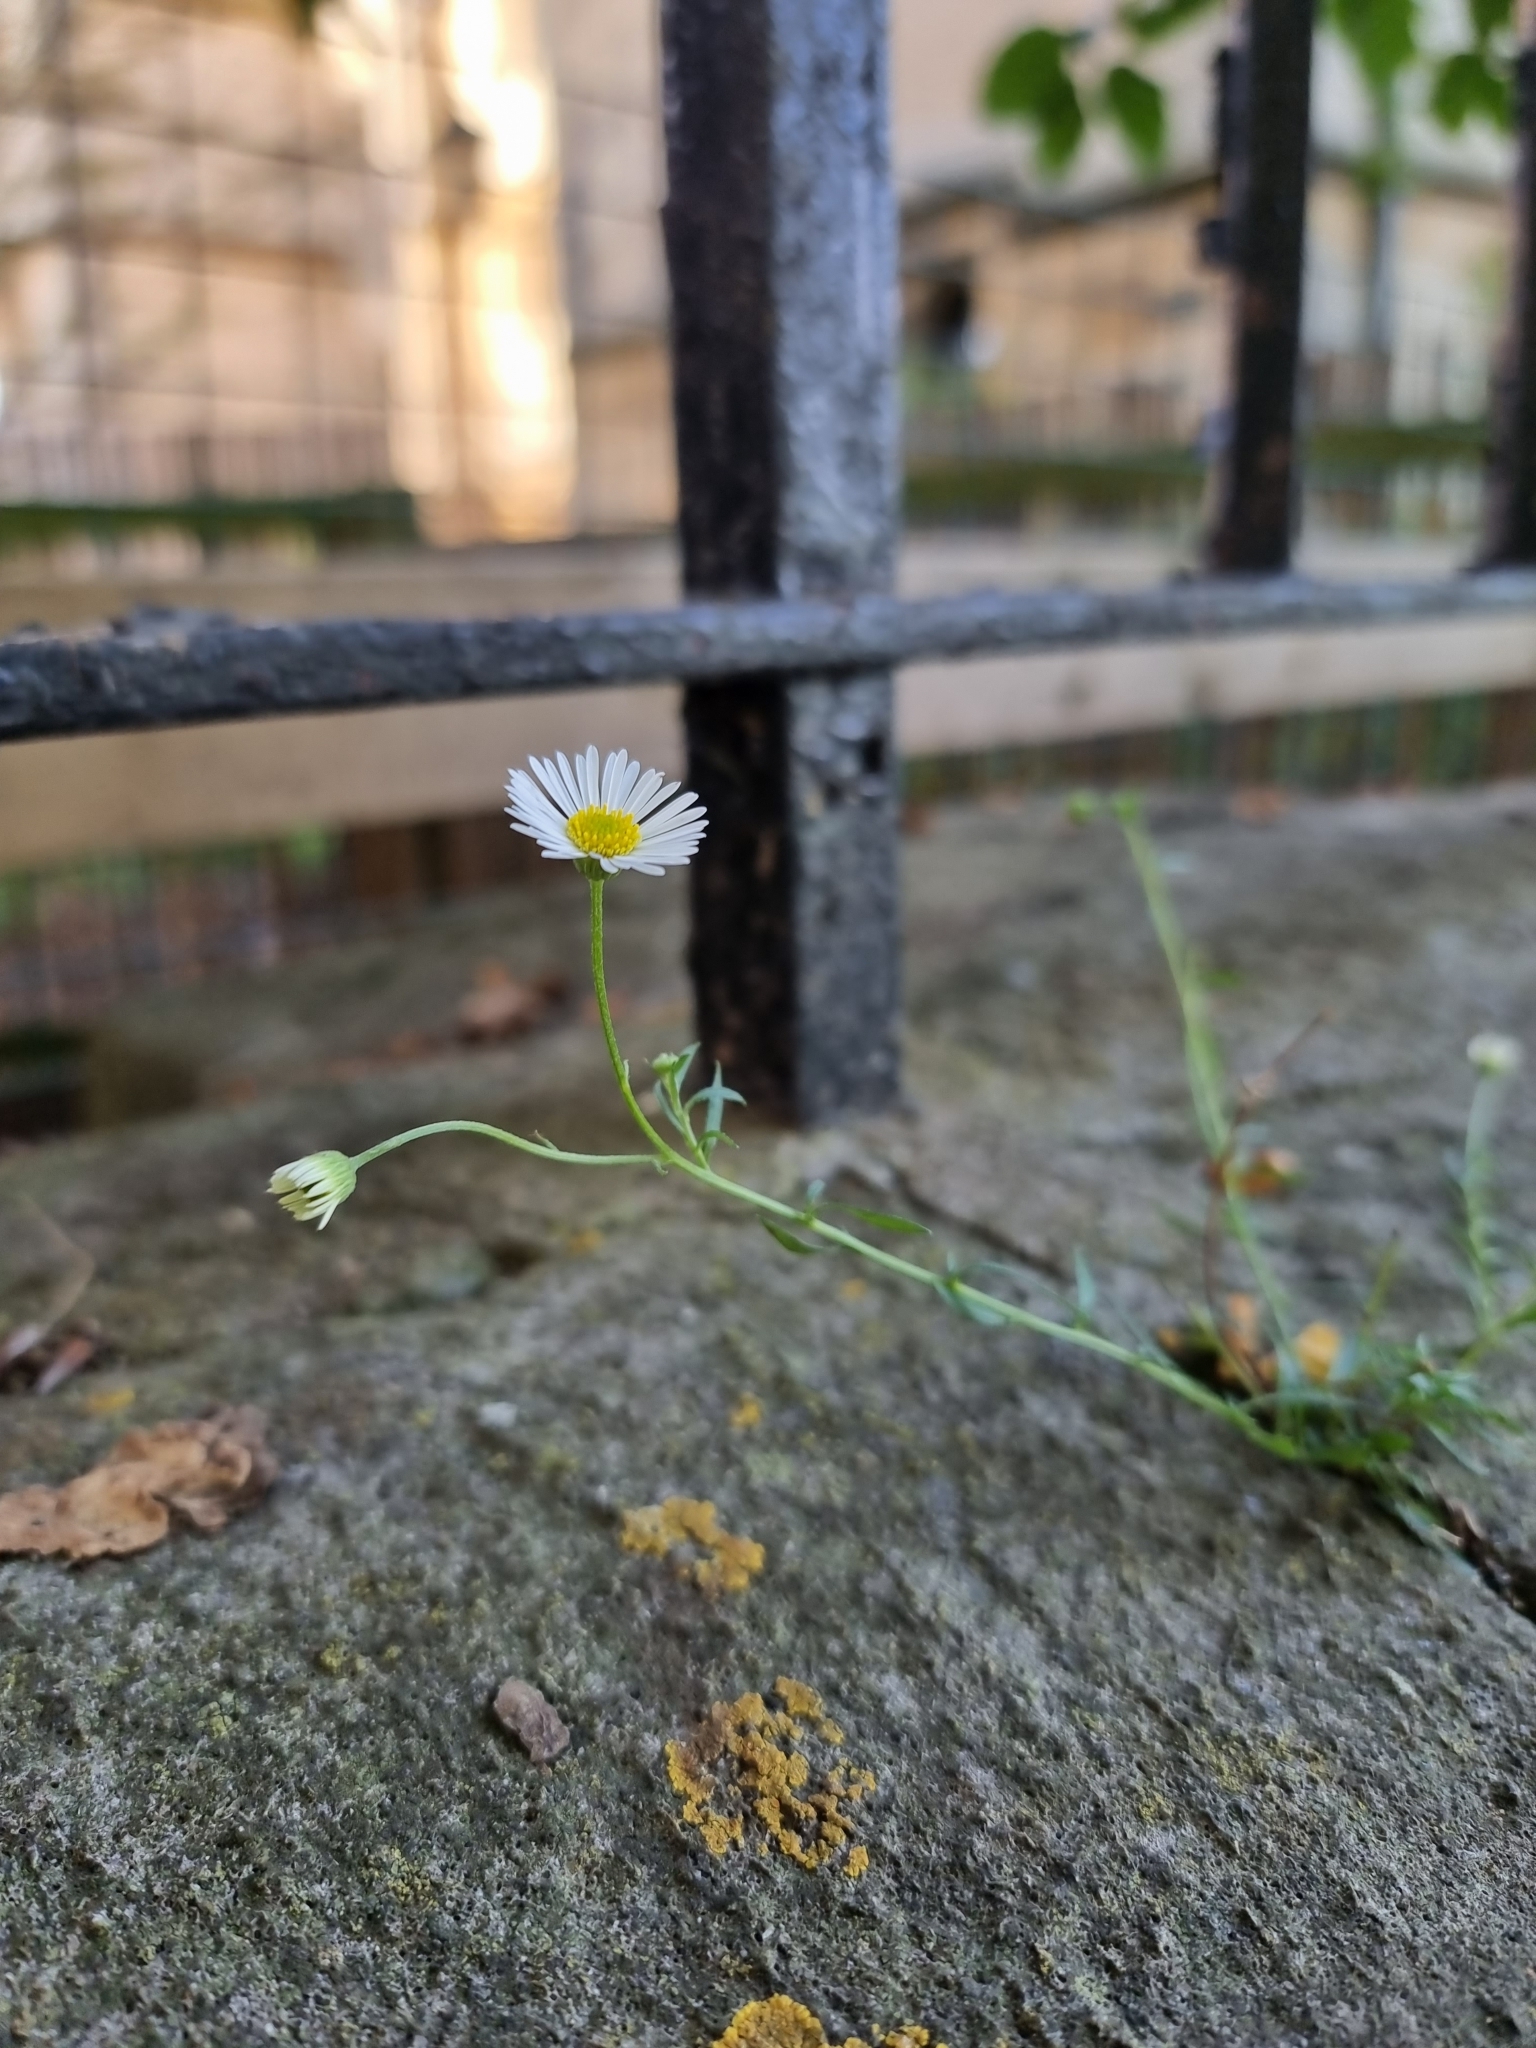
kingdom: Plantae
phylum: Tracheophyta
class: Magnoliopsida
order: Asterales
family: Asteraceae
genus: Erigeron
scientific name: Erigeron karvinskianus
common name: Mexican fleabane
